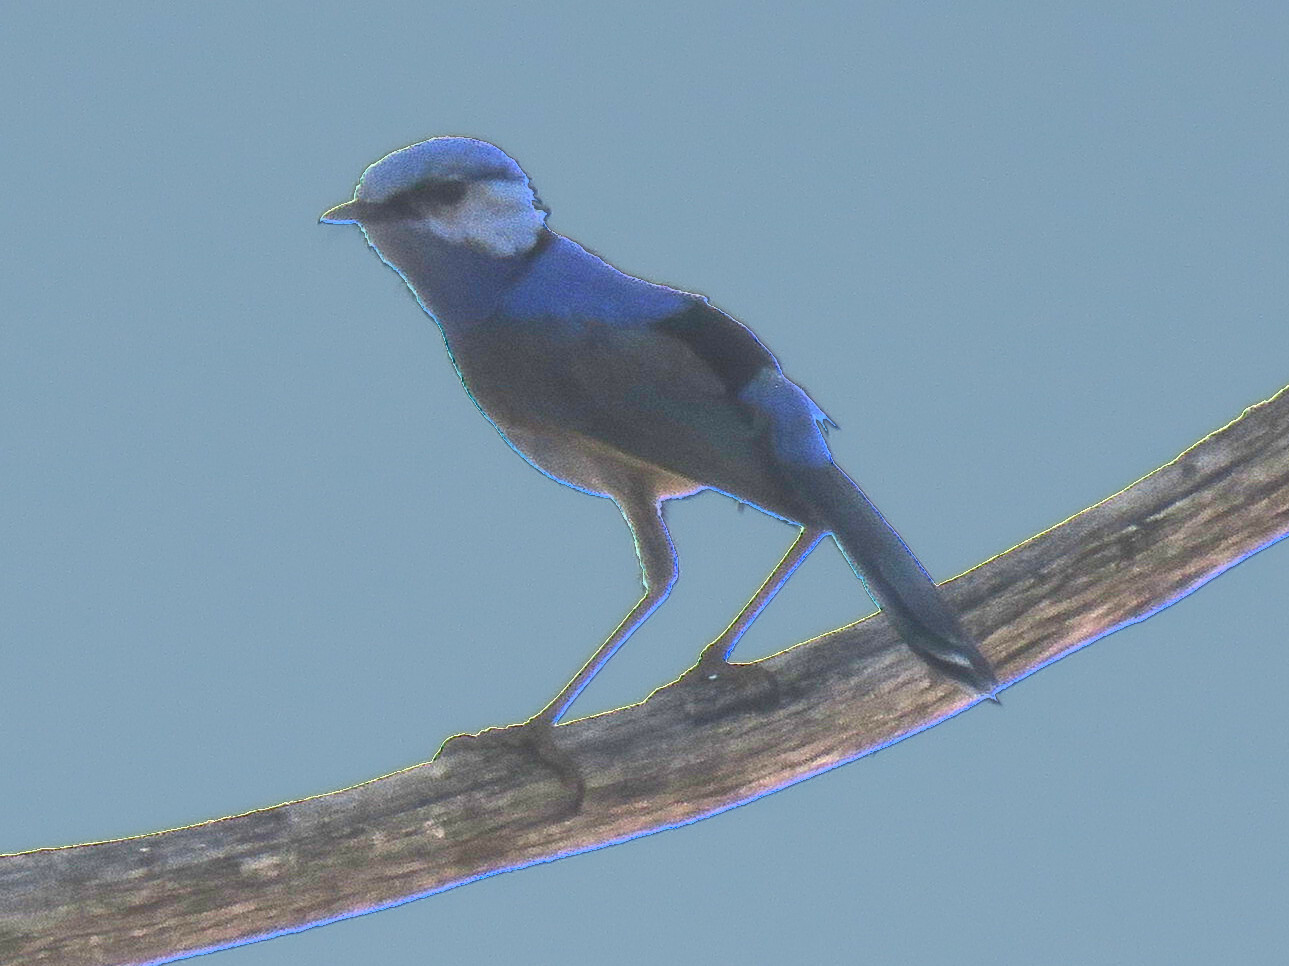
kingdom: Animalia
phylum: Chordata
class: Aves
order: Passeriformes
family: Maluridae
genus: Malurus
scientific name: Malurus splendens
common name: Splendid fairywren
